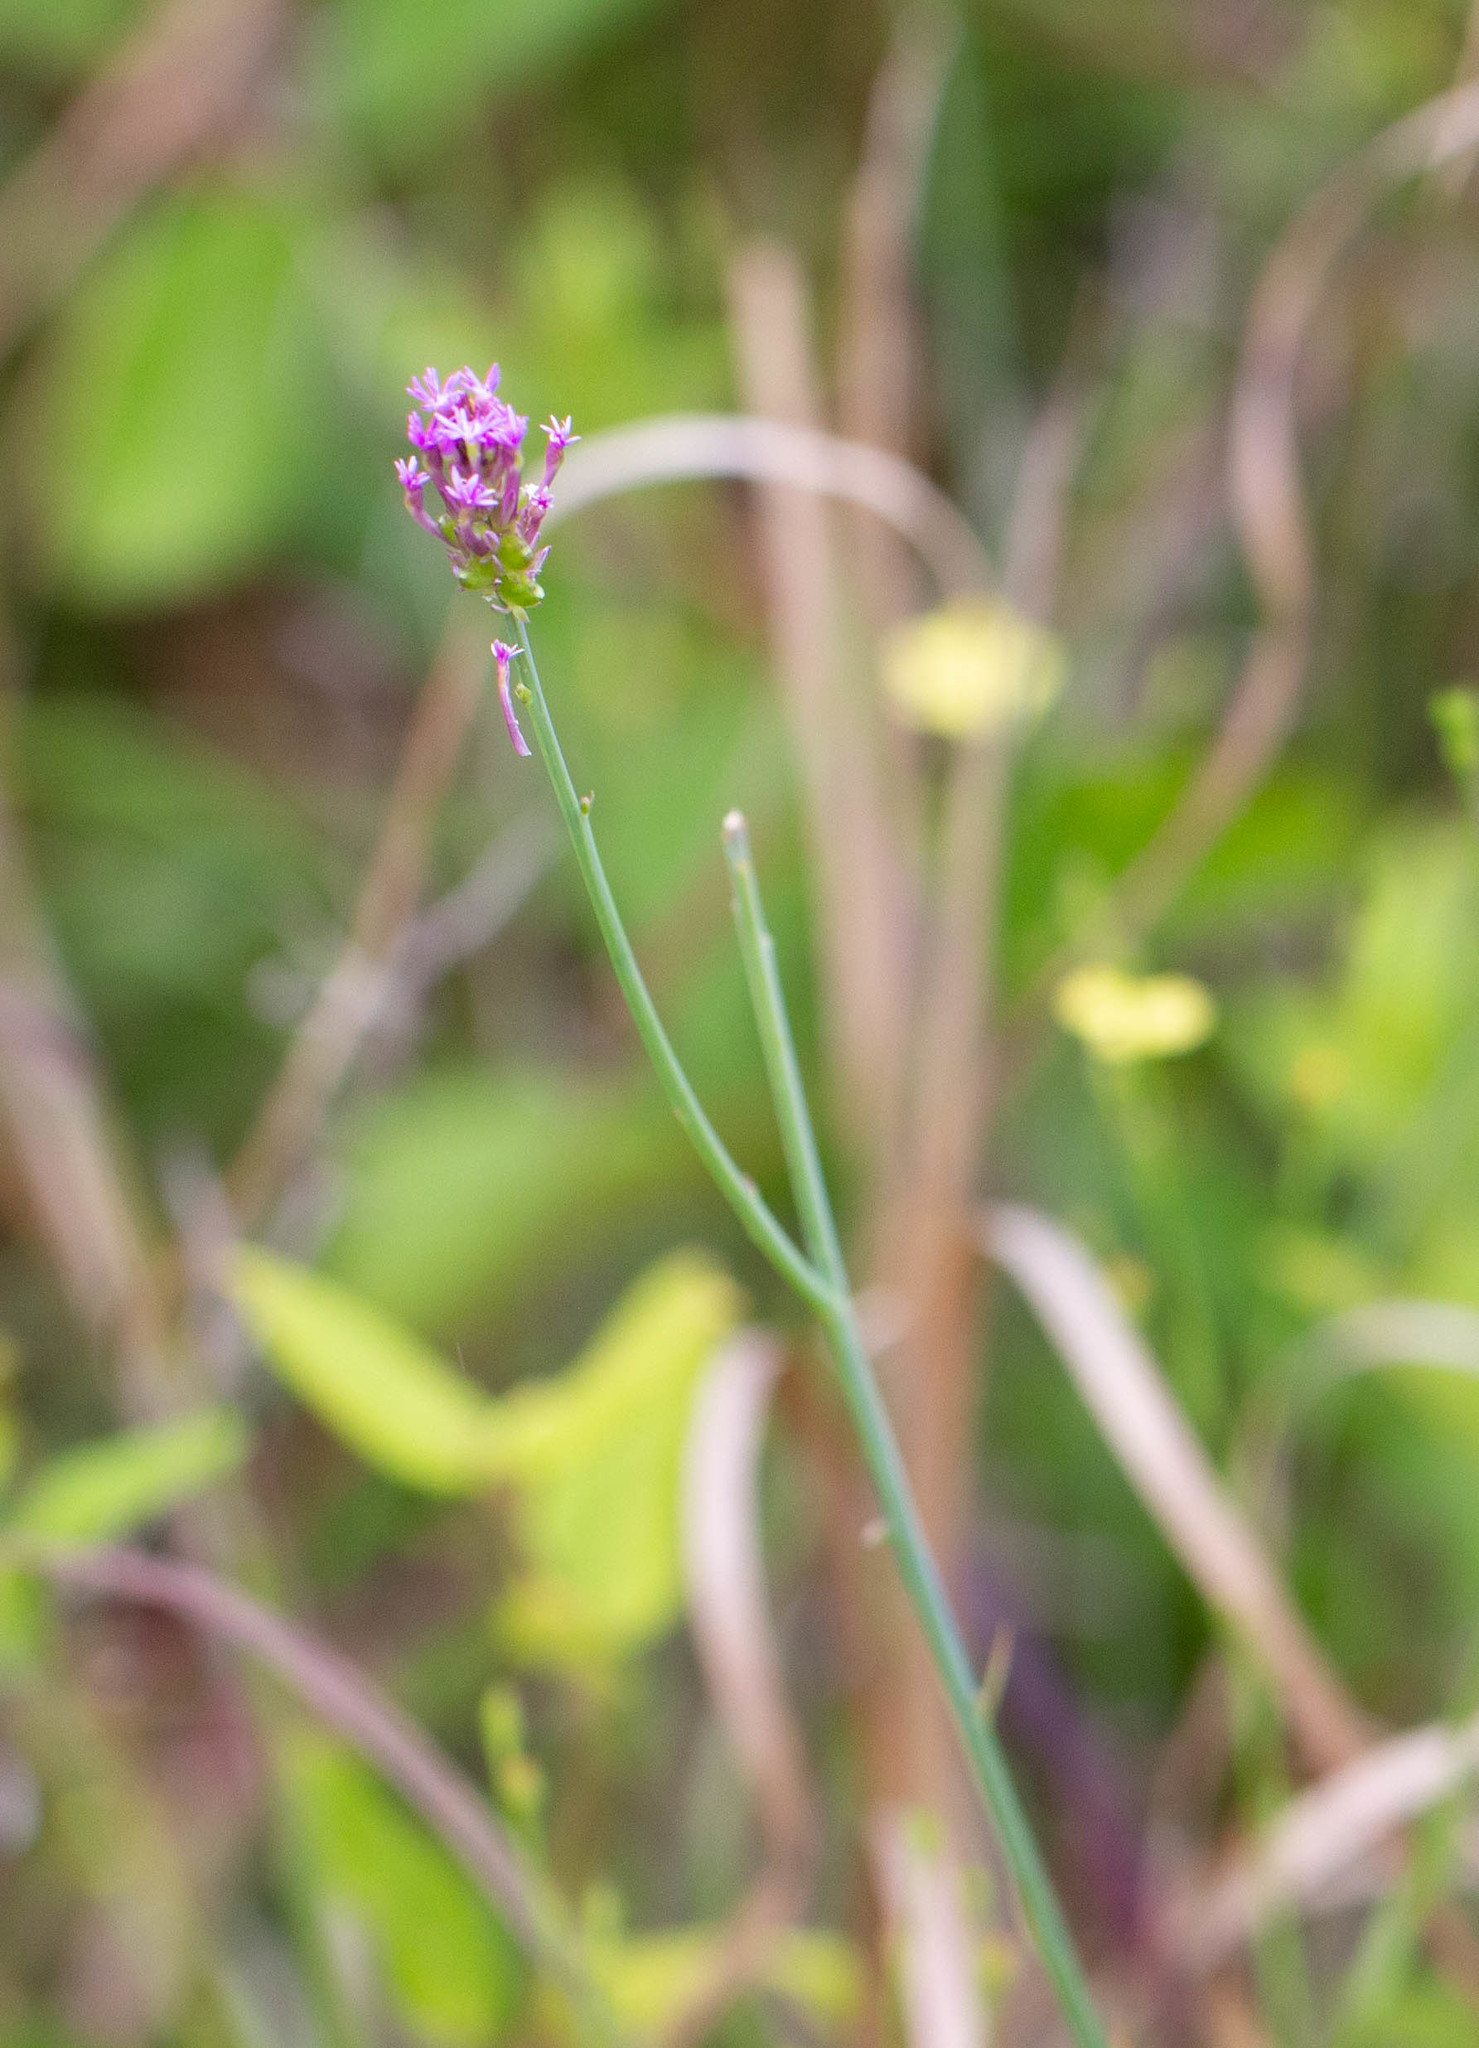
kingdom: Plantae
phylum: Tracheophyta
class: Magnoliopsida
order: Fabales
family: Polygalaceae
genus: Polygala
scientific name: Polygala incarnata
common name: Pink milkwort
